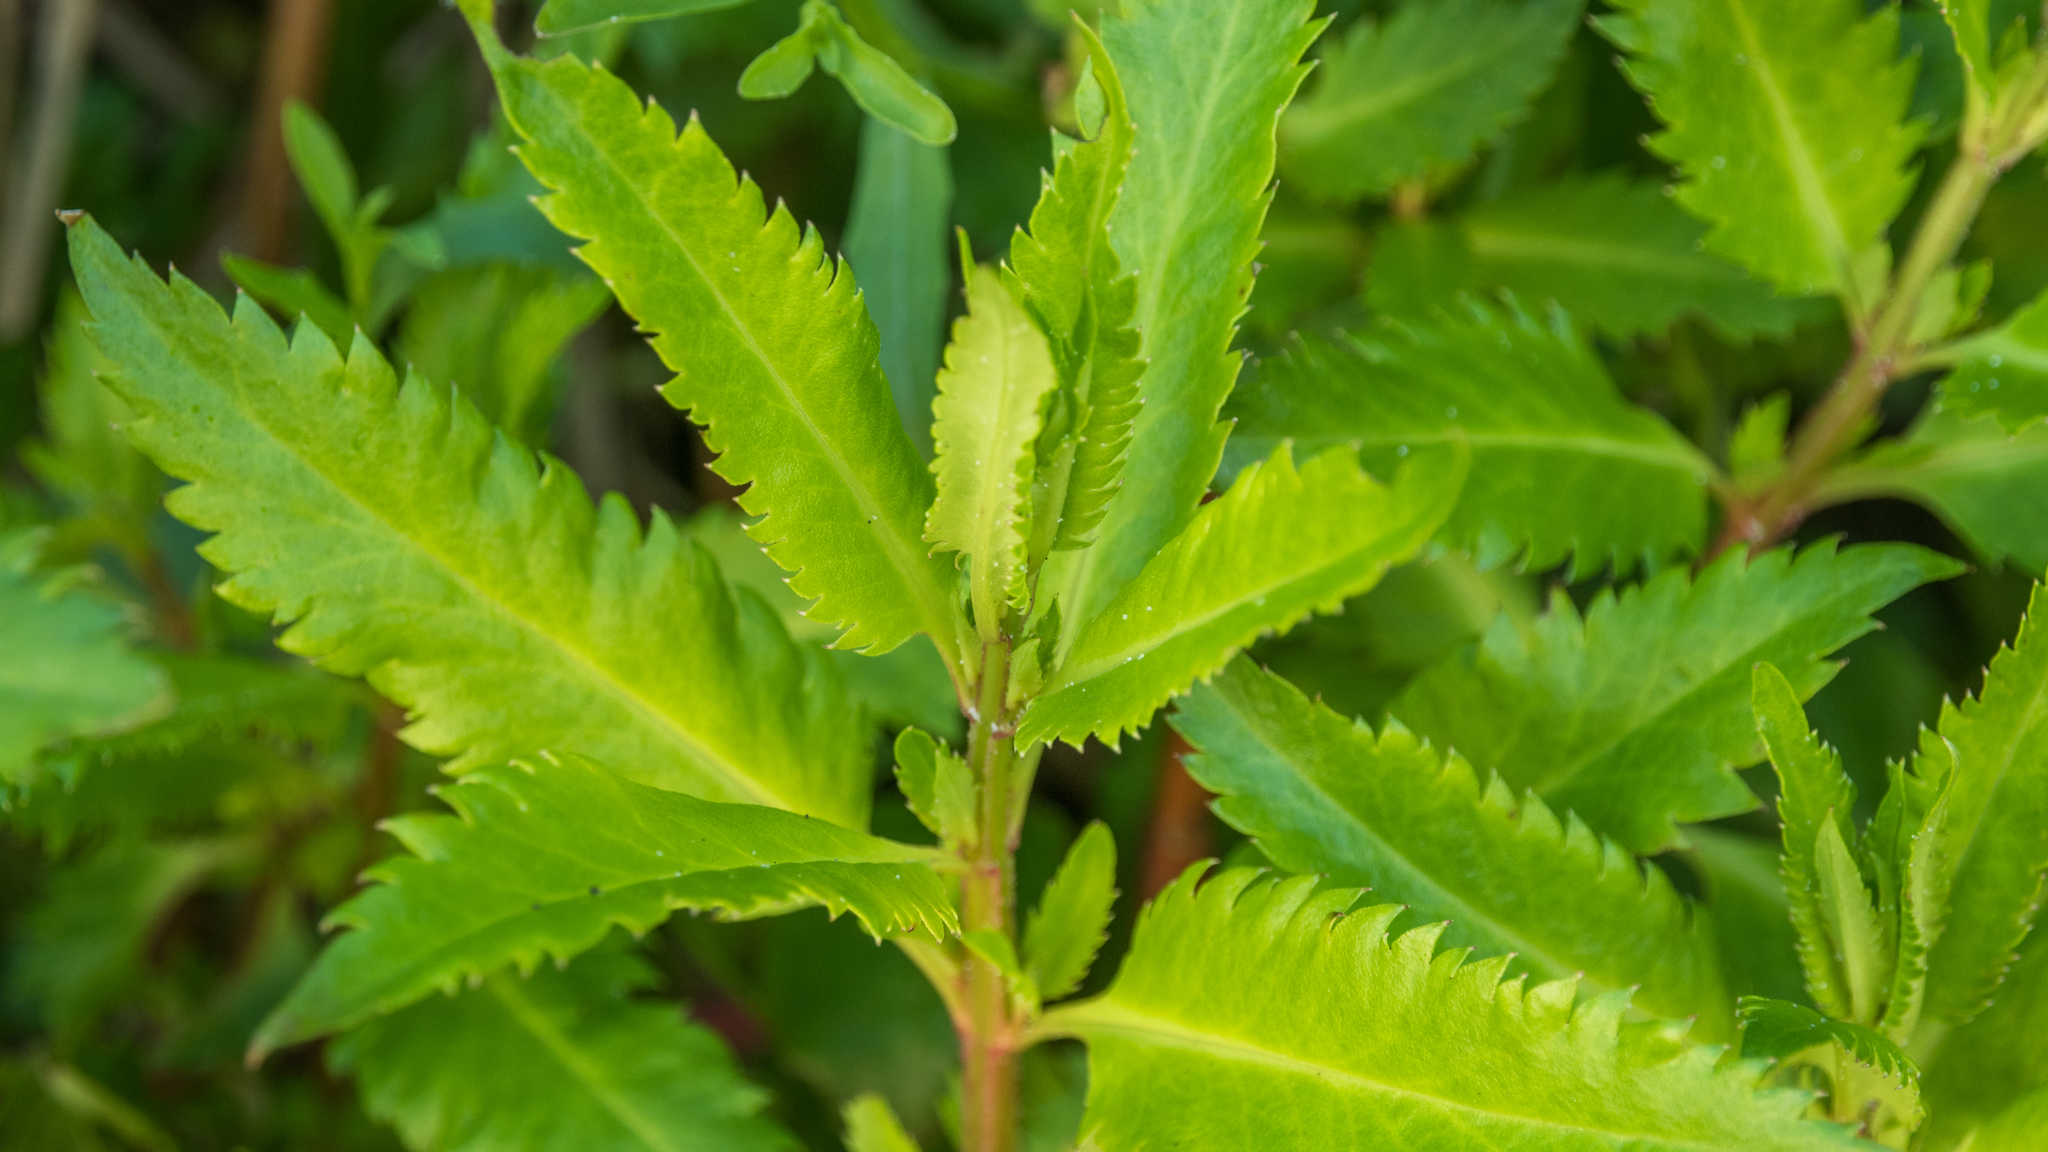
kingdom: Plantae
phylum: Tracheophyta
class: Magnoliopsida
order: Saxifragales
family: Haloragaceae
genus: Haloragis
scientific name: Haloragis erecta
